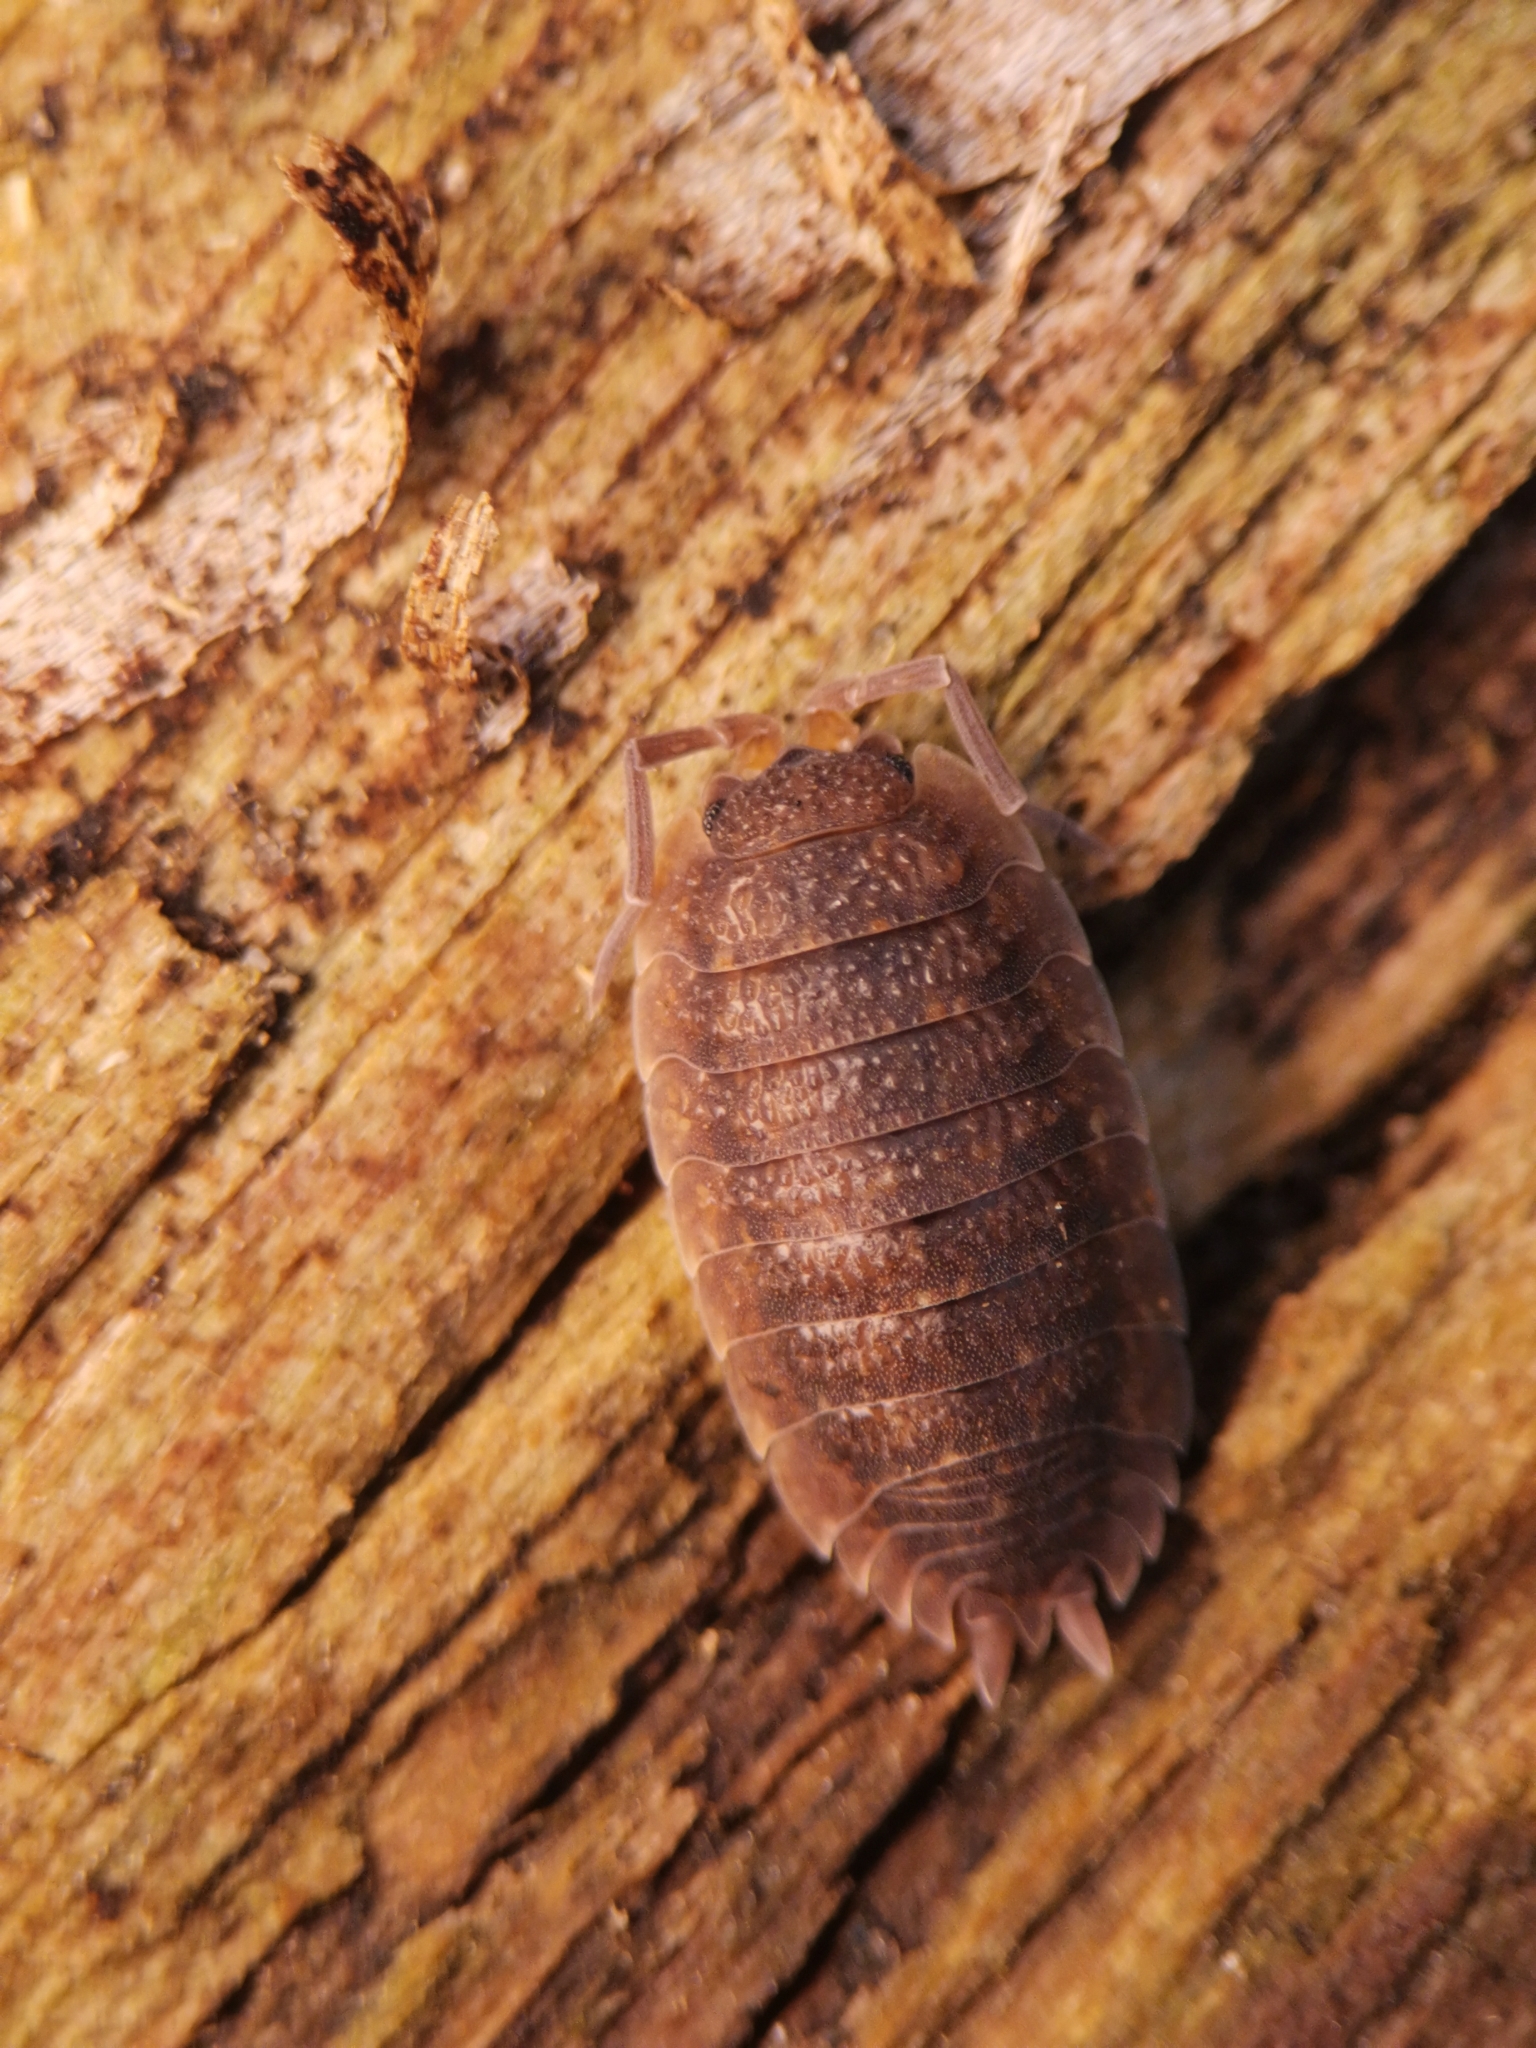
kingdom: Animalia
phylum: Arthropoda
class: Malacostraca
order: Isopoda
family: Porcellionidae
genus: Porcellio
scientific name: Porcellio scaber
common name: Common rough woodlouse
